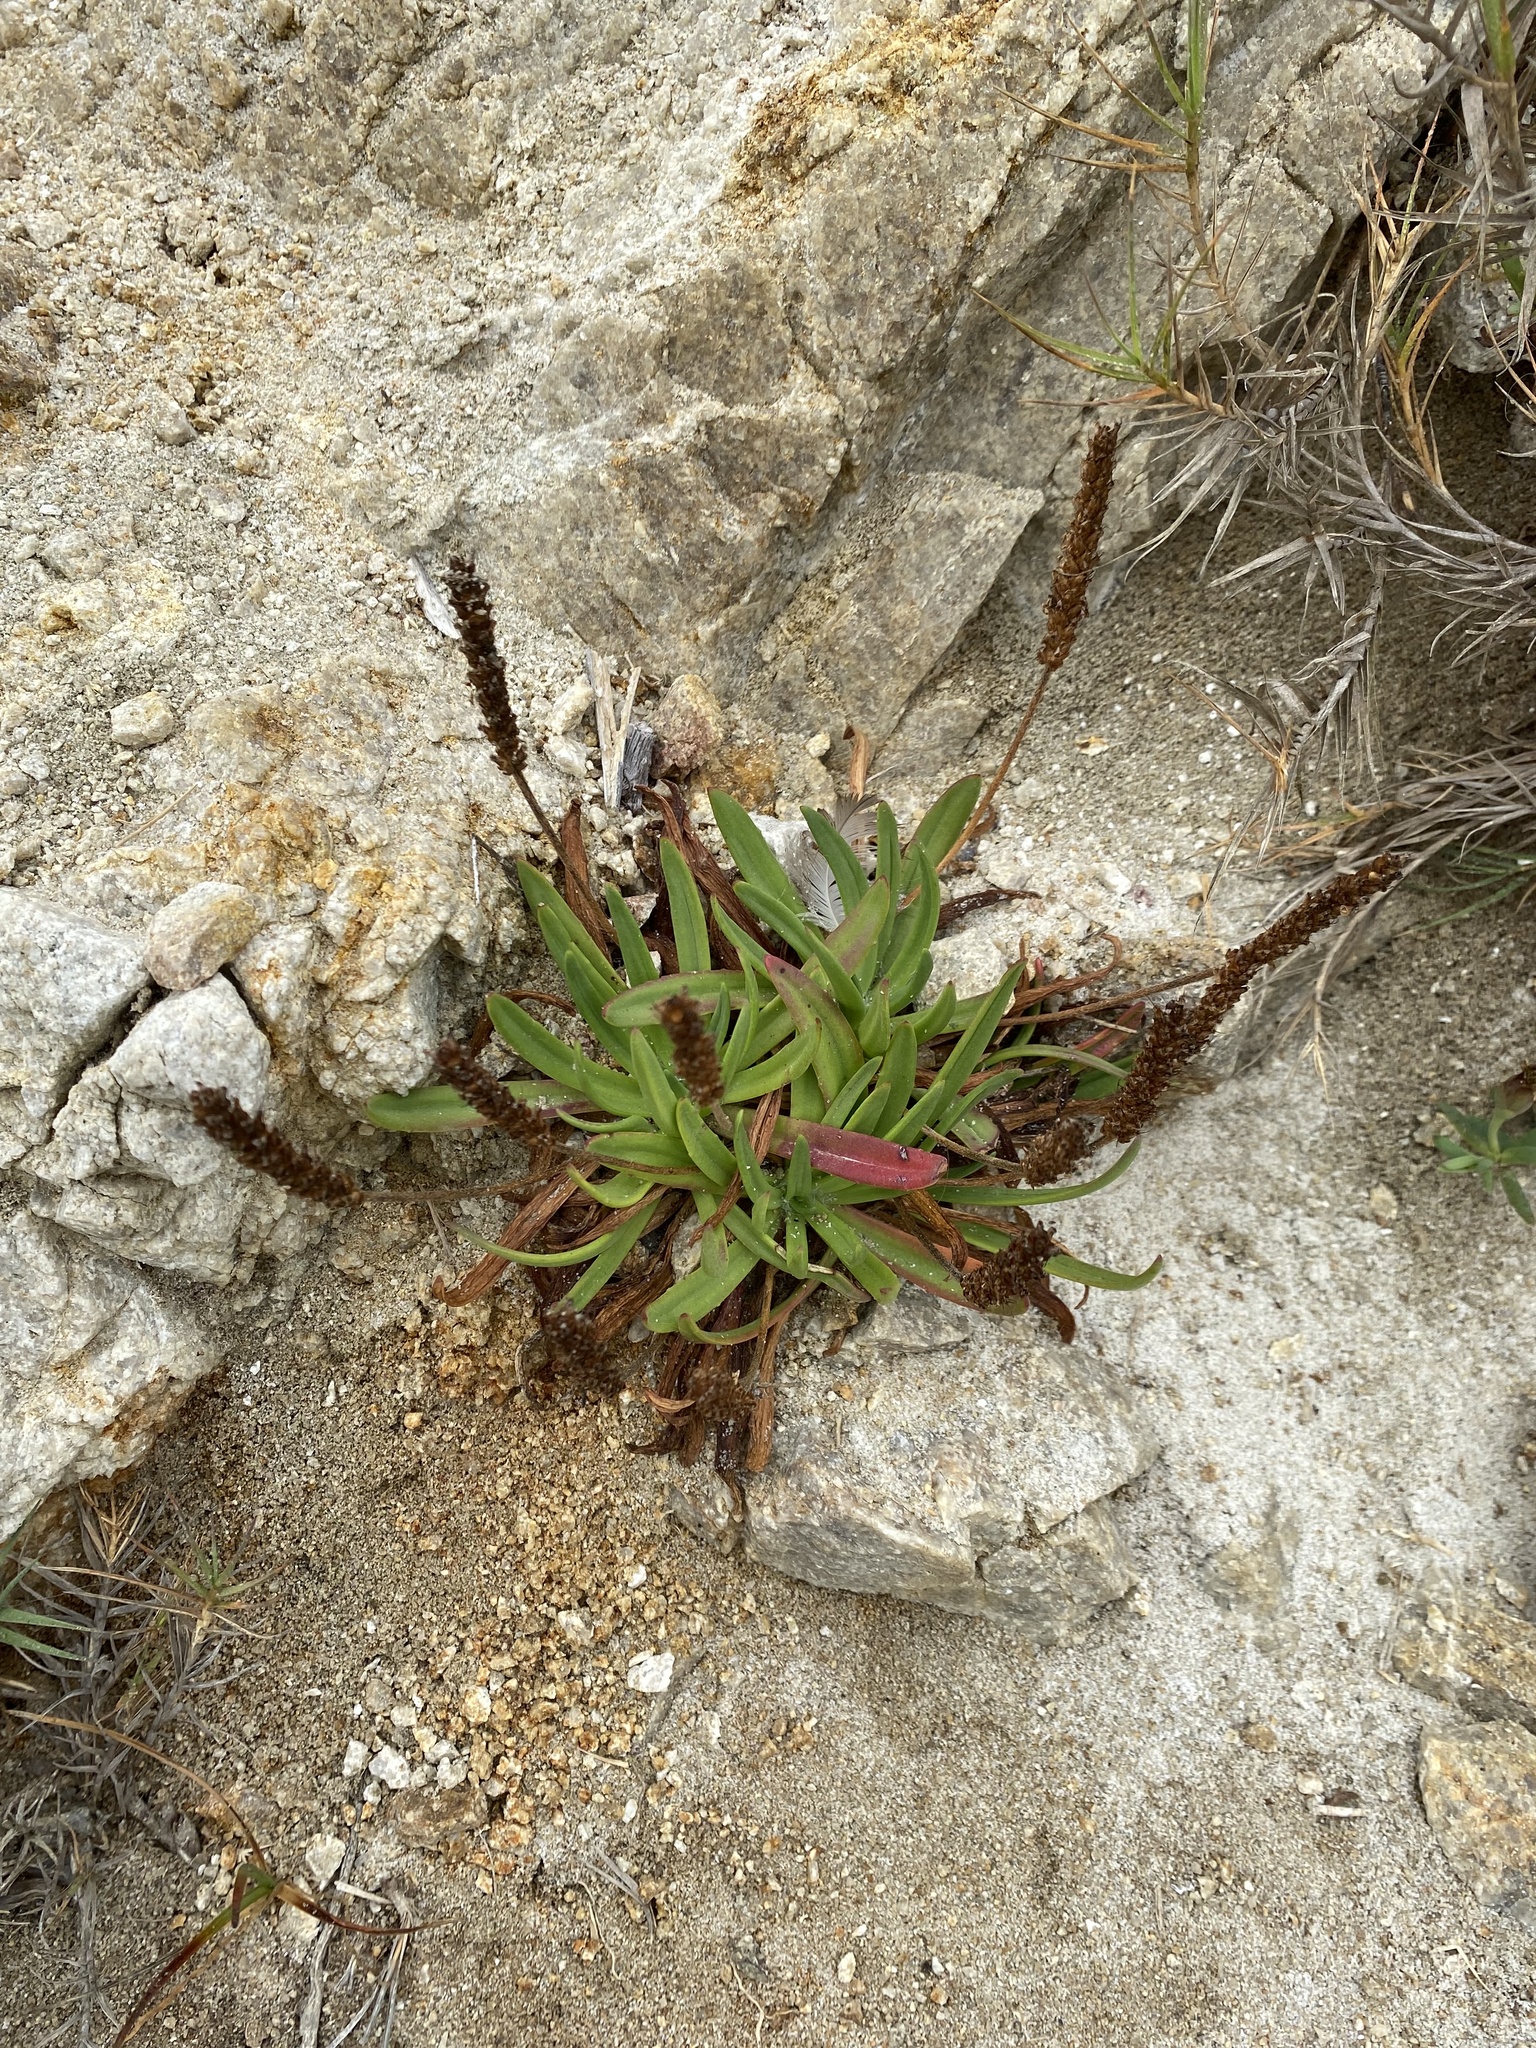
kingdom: Plantae
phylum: Tracheophyta
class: Magnoliopsida
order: Lamiales
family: Plantaginaceae
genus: Plantago
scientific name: Plantago maritima
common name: Sea plantain
